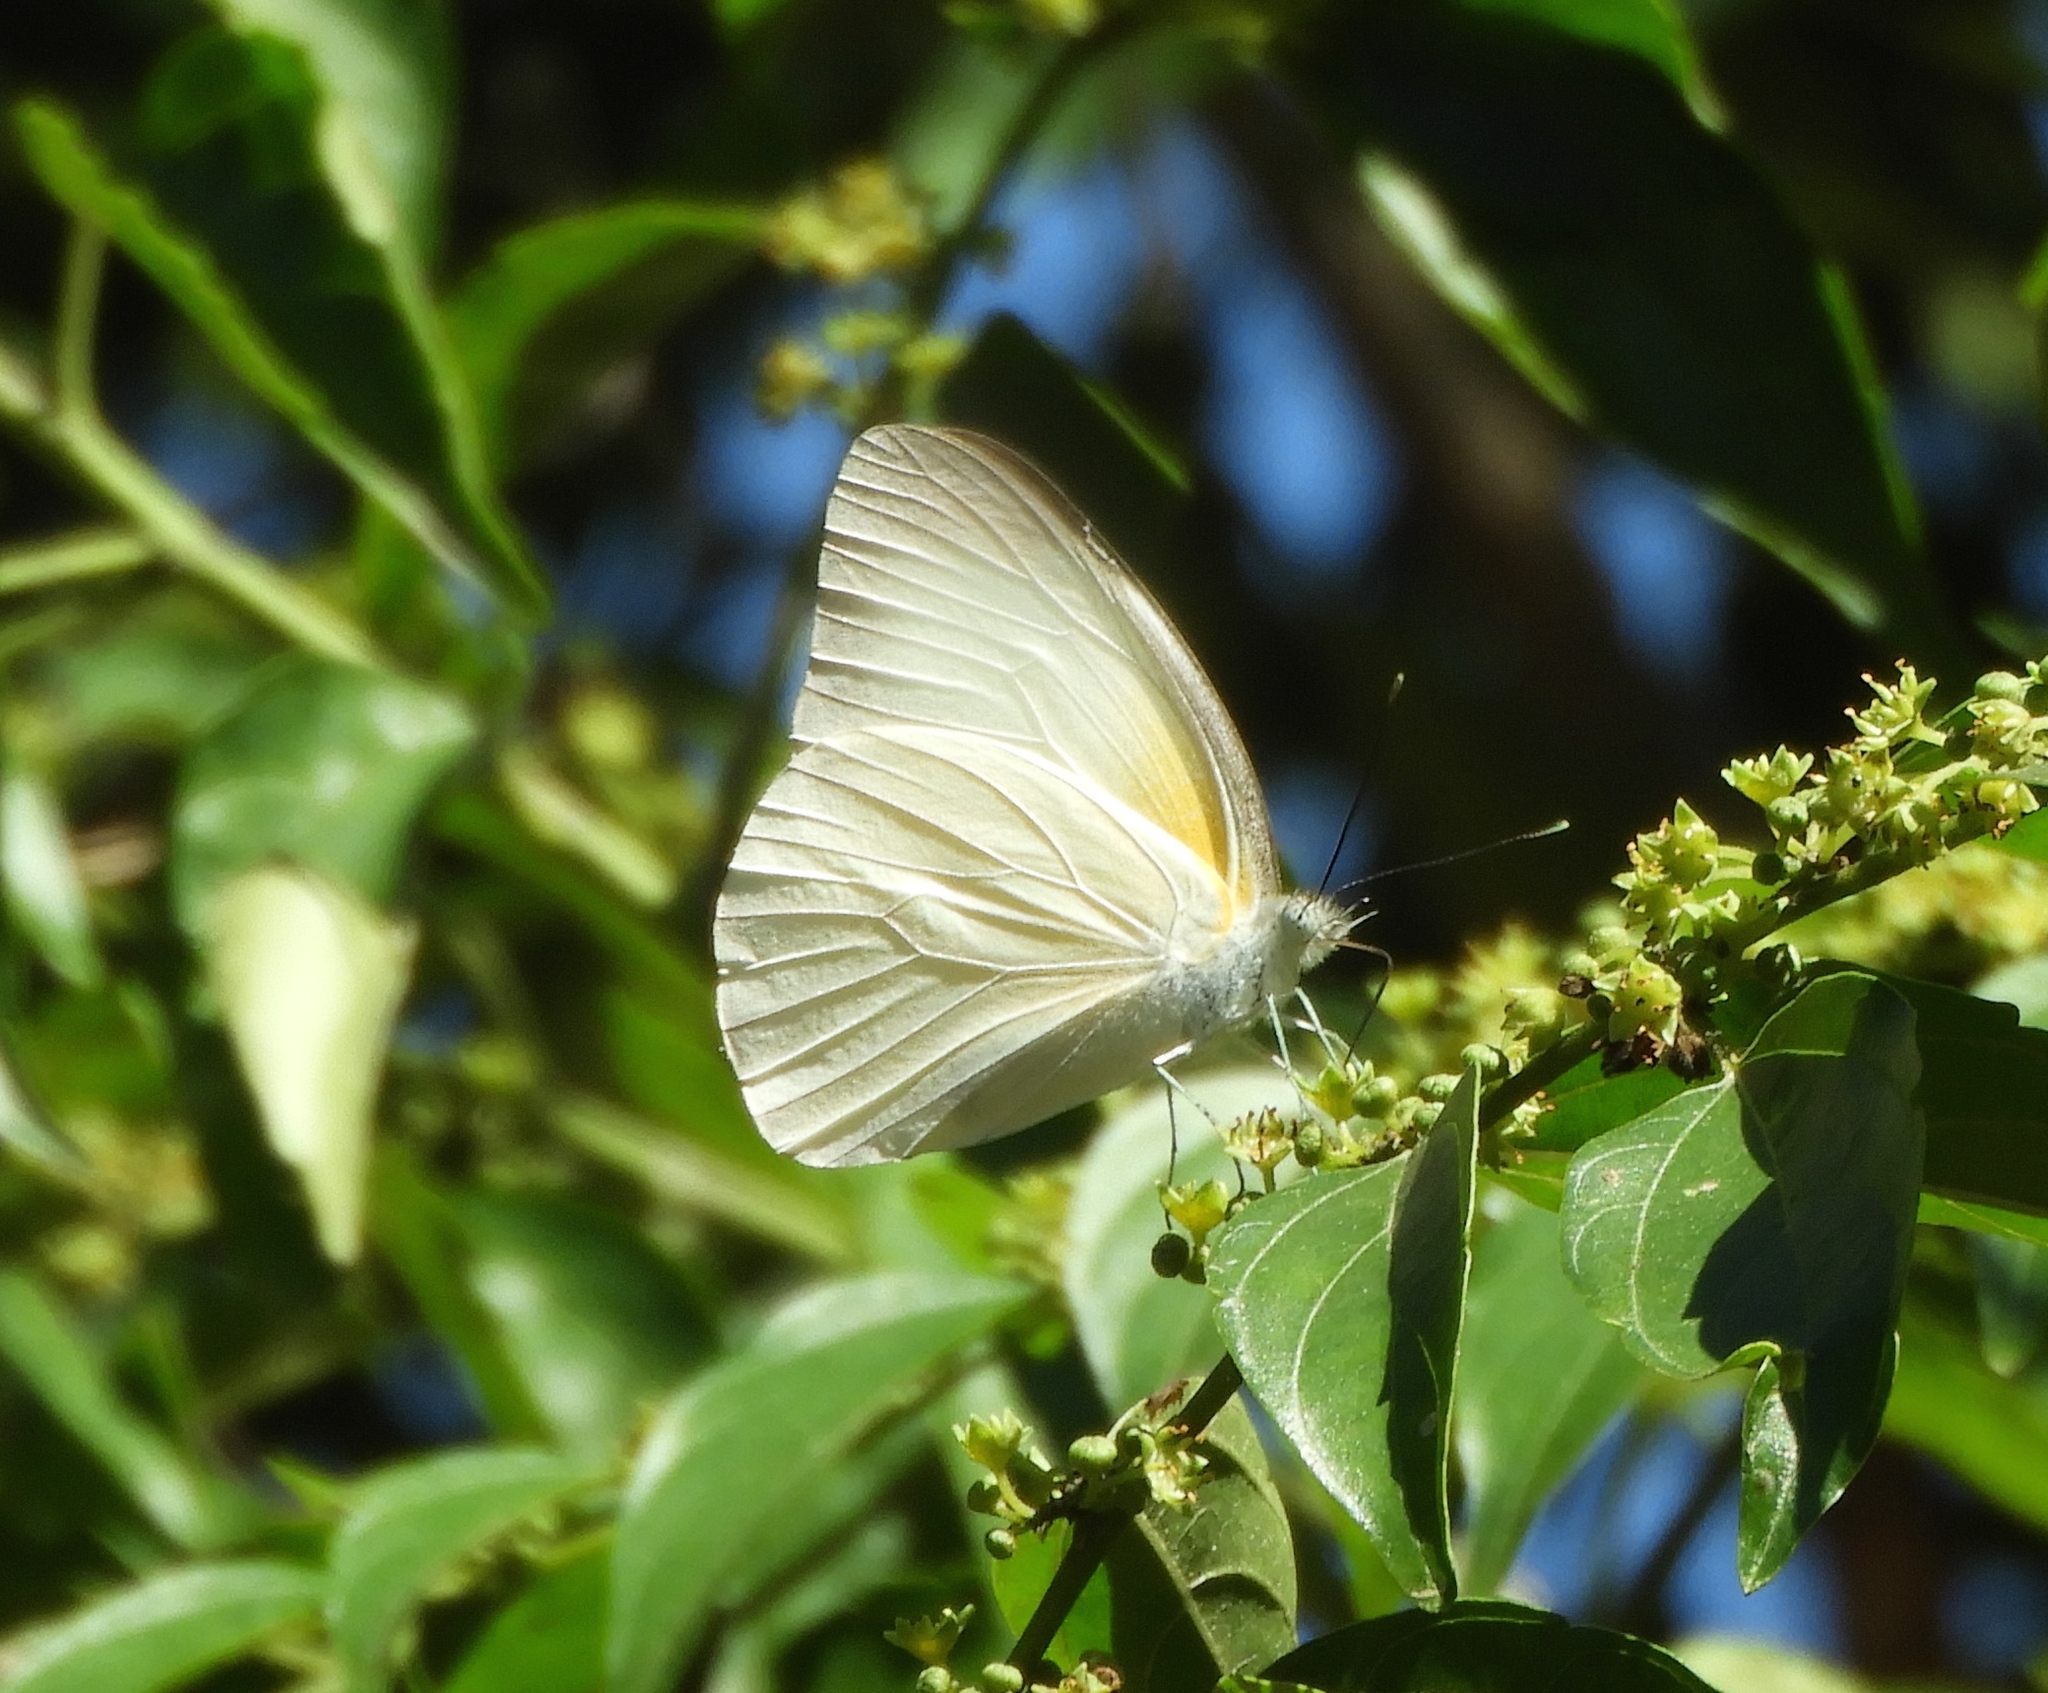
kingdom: Animalia
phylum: Arthropoda
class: Insecta
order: Lepidoptera
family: Pieridae
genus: Glutophrissa
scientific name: Glutophrissa drusilla
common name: Florida white
